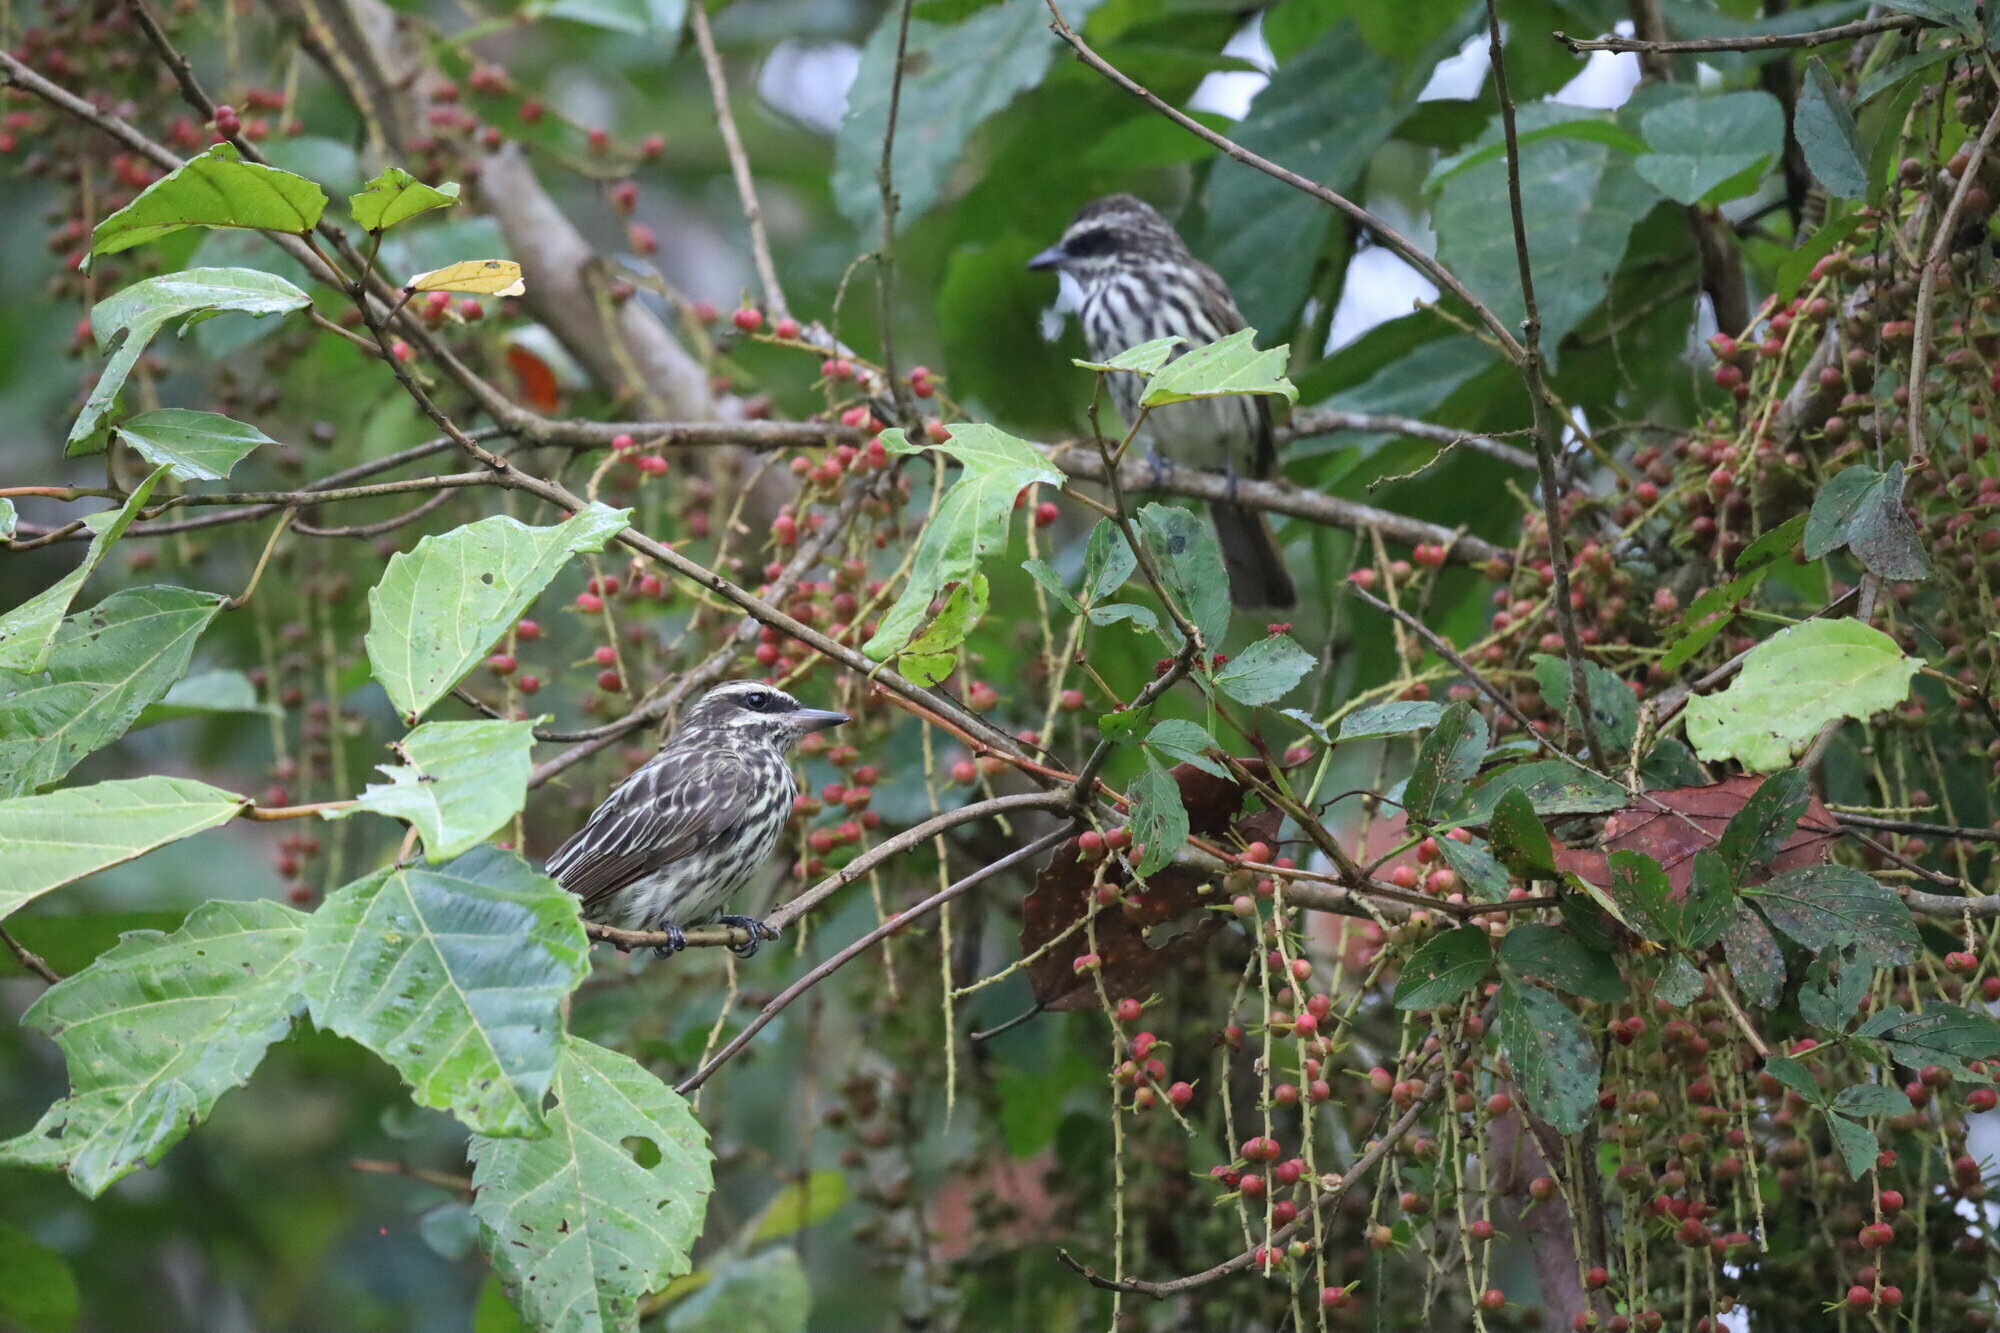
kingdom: Animalia
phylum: Chordata
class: Aves
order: Passeriformes
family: Tyrannidae
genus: Myiodynastes
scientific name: Myiodynastes maculatus
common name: Streaked flycatcher
